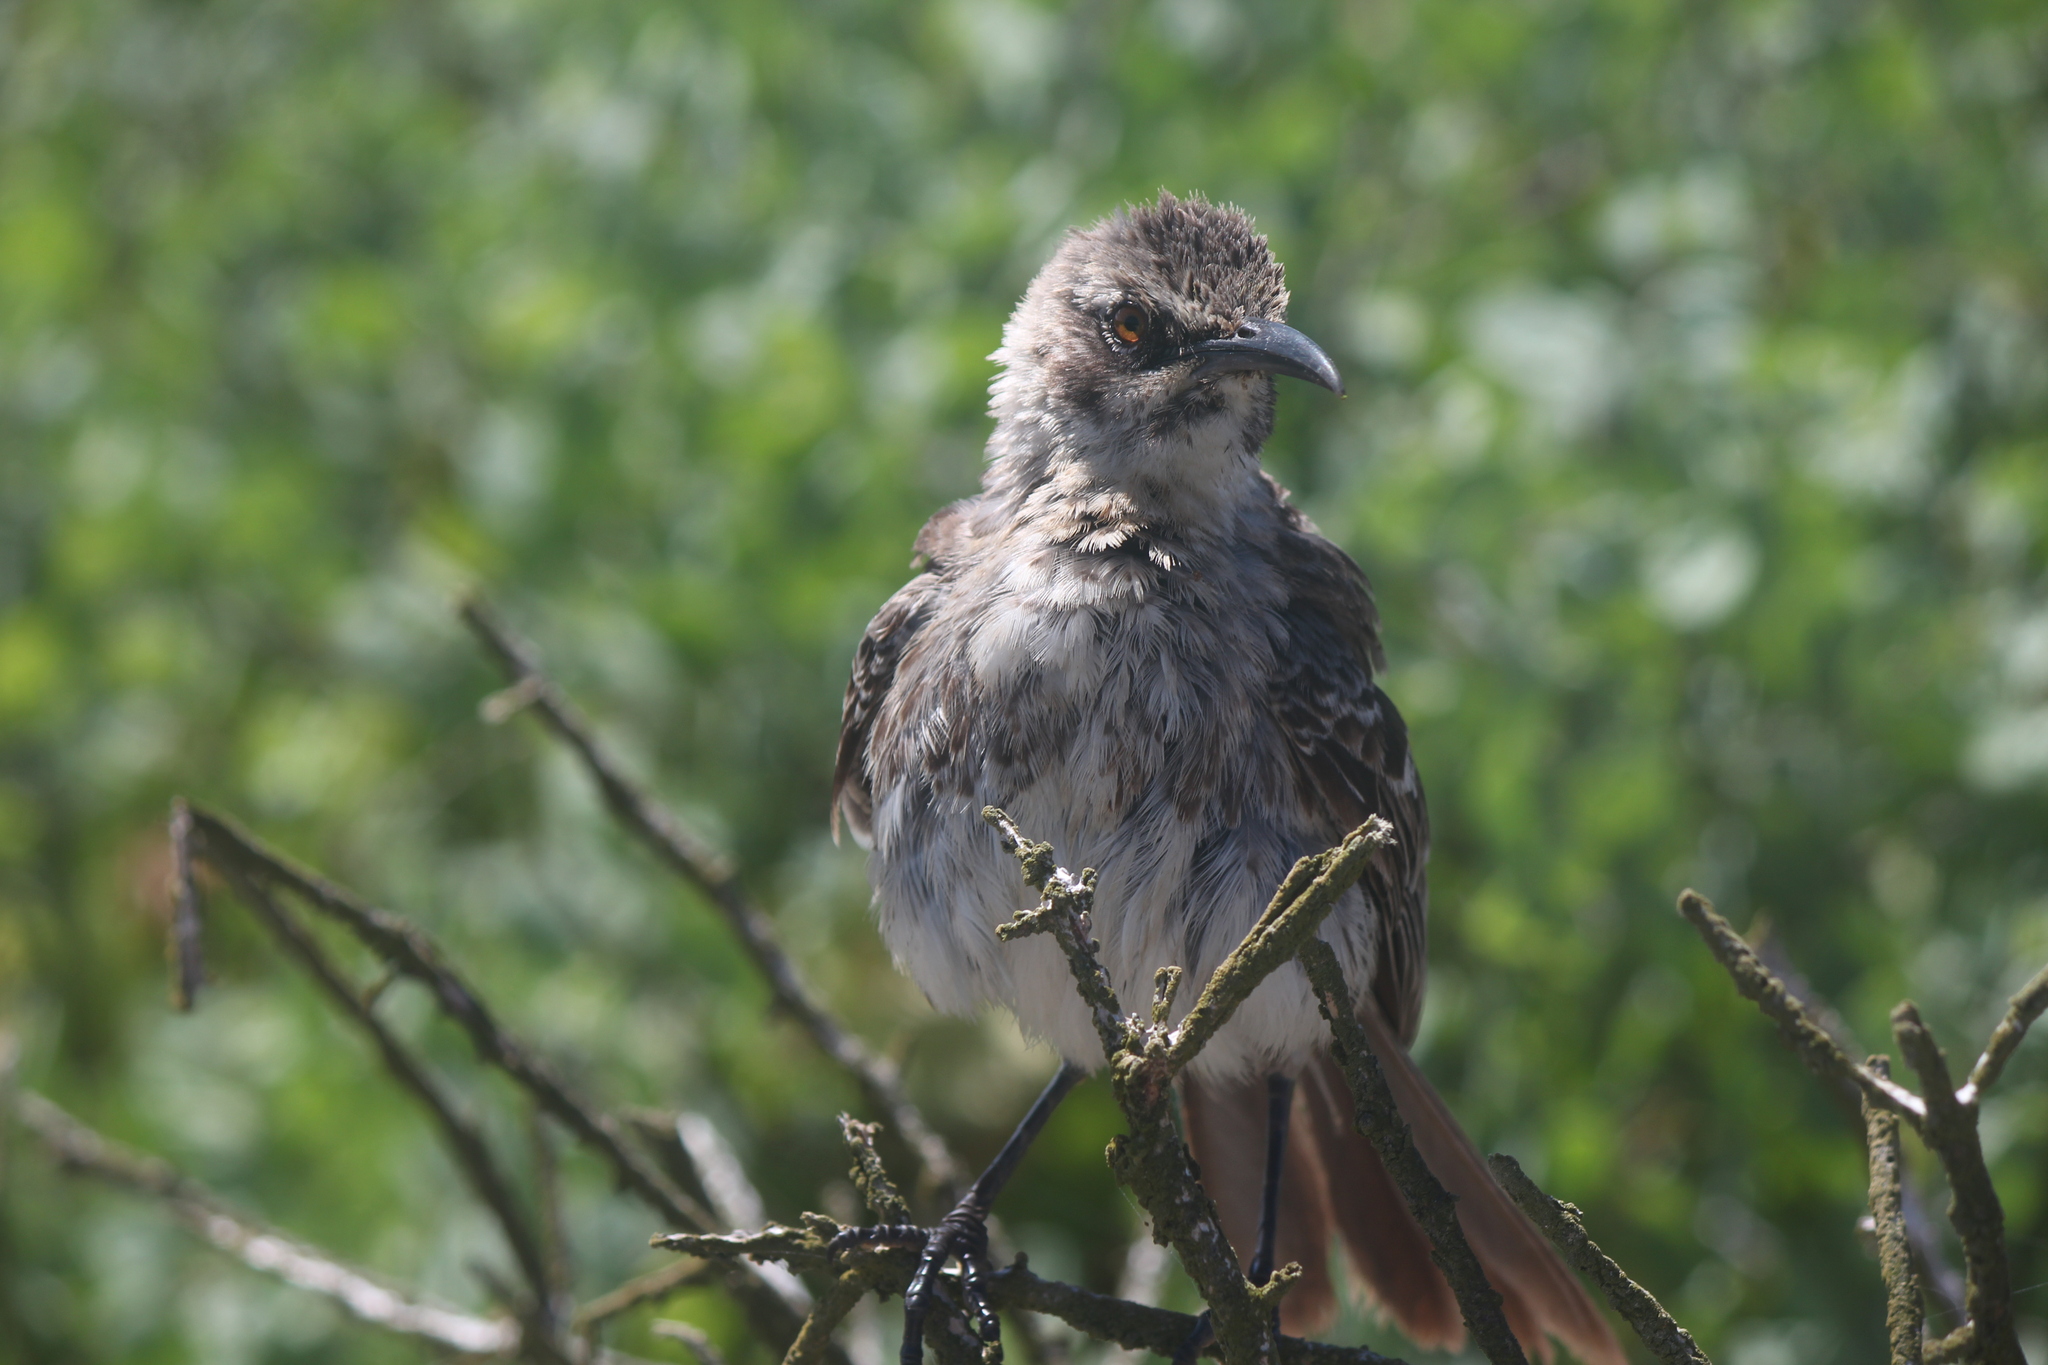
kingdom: Animalia
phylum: Chordata
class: Aves
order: Passeriformes
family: Mimidae
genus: Mimus
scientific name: Mimus macdonaldi
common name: Espanola mockingbird
